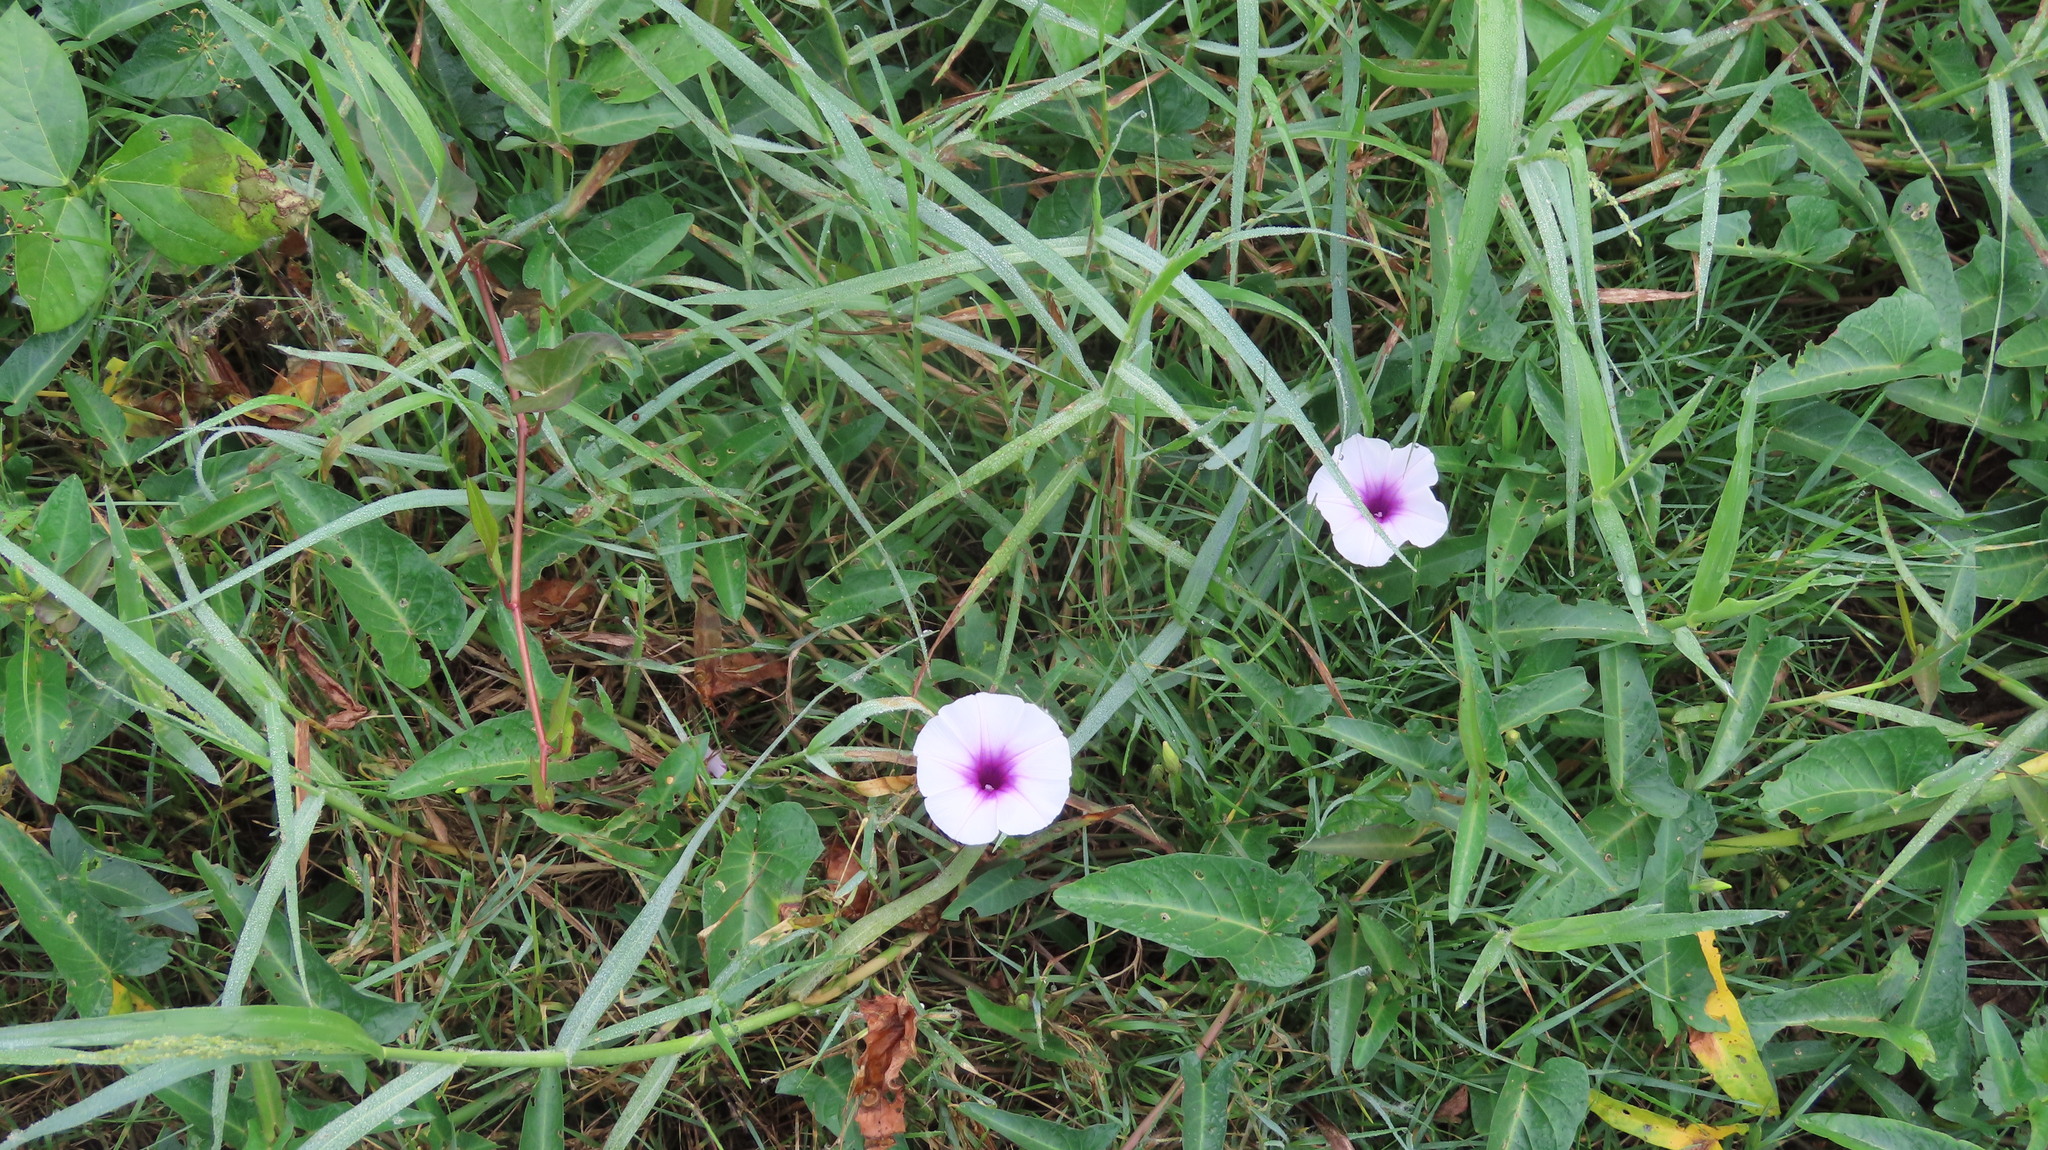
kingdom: Plantae
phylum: Tracheophyta
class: Magnoliopsida
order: Solanales
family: Convolvulaceae
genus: Ipomoea
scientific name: Ipomoea aquatica
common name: Swamp morning-glory
